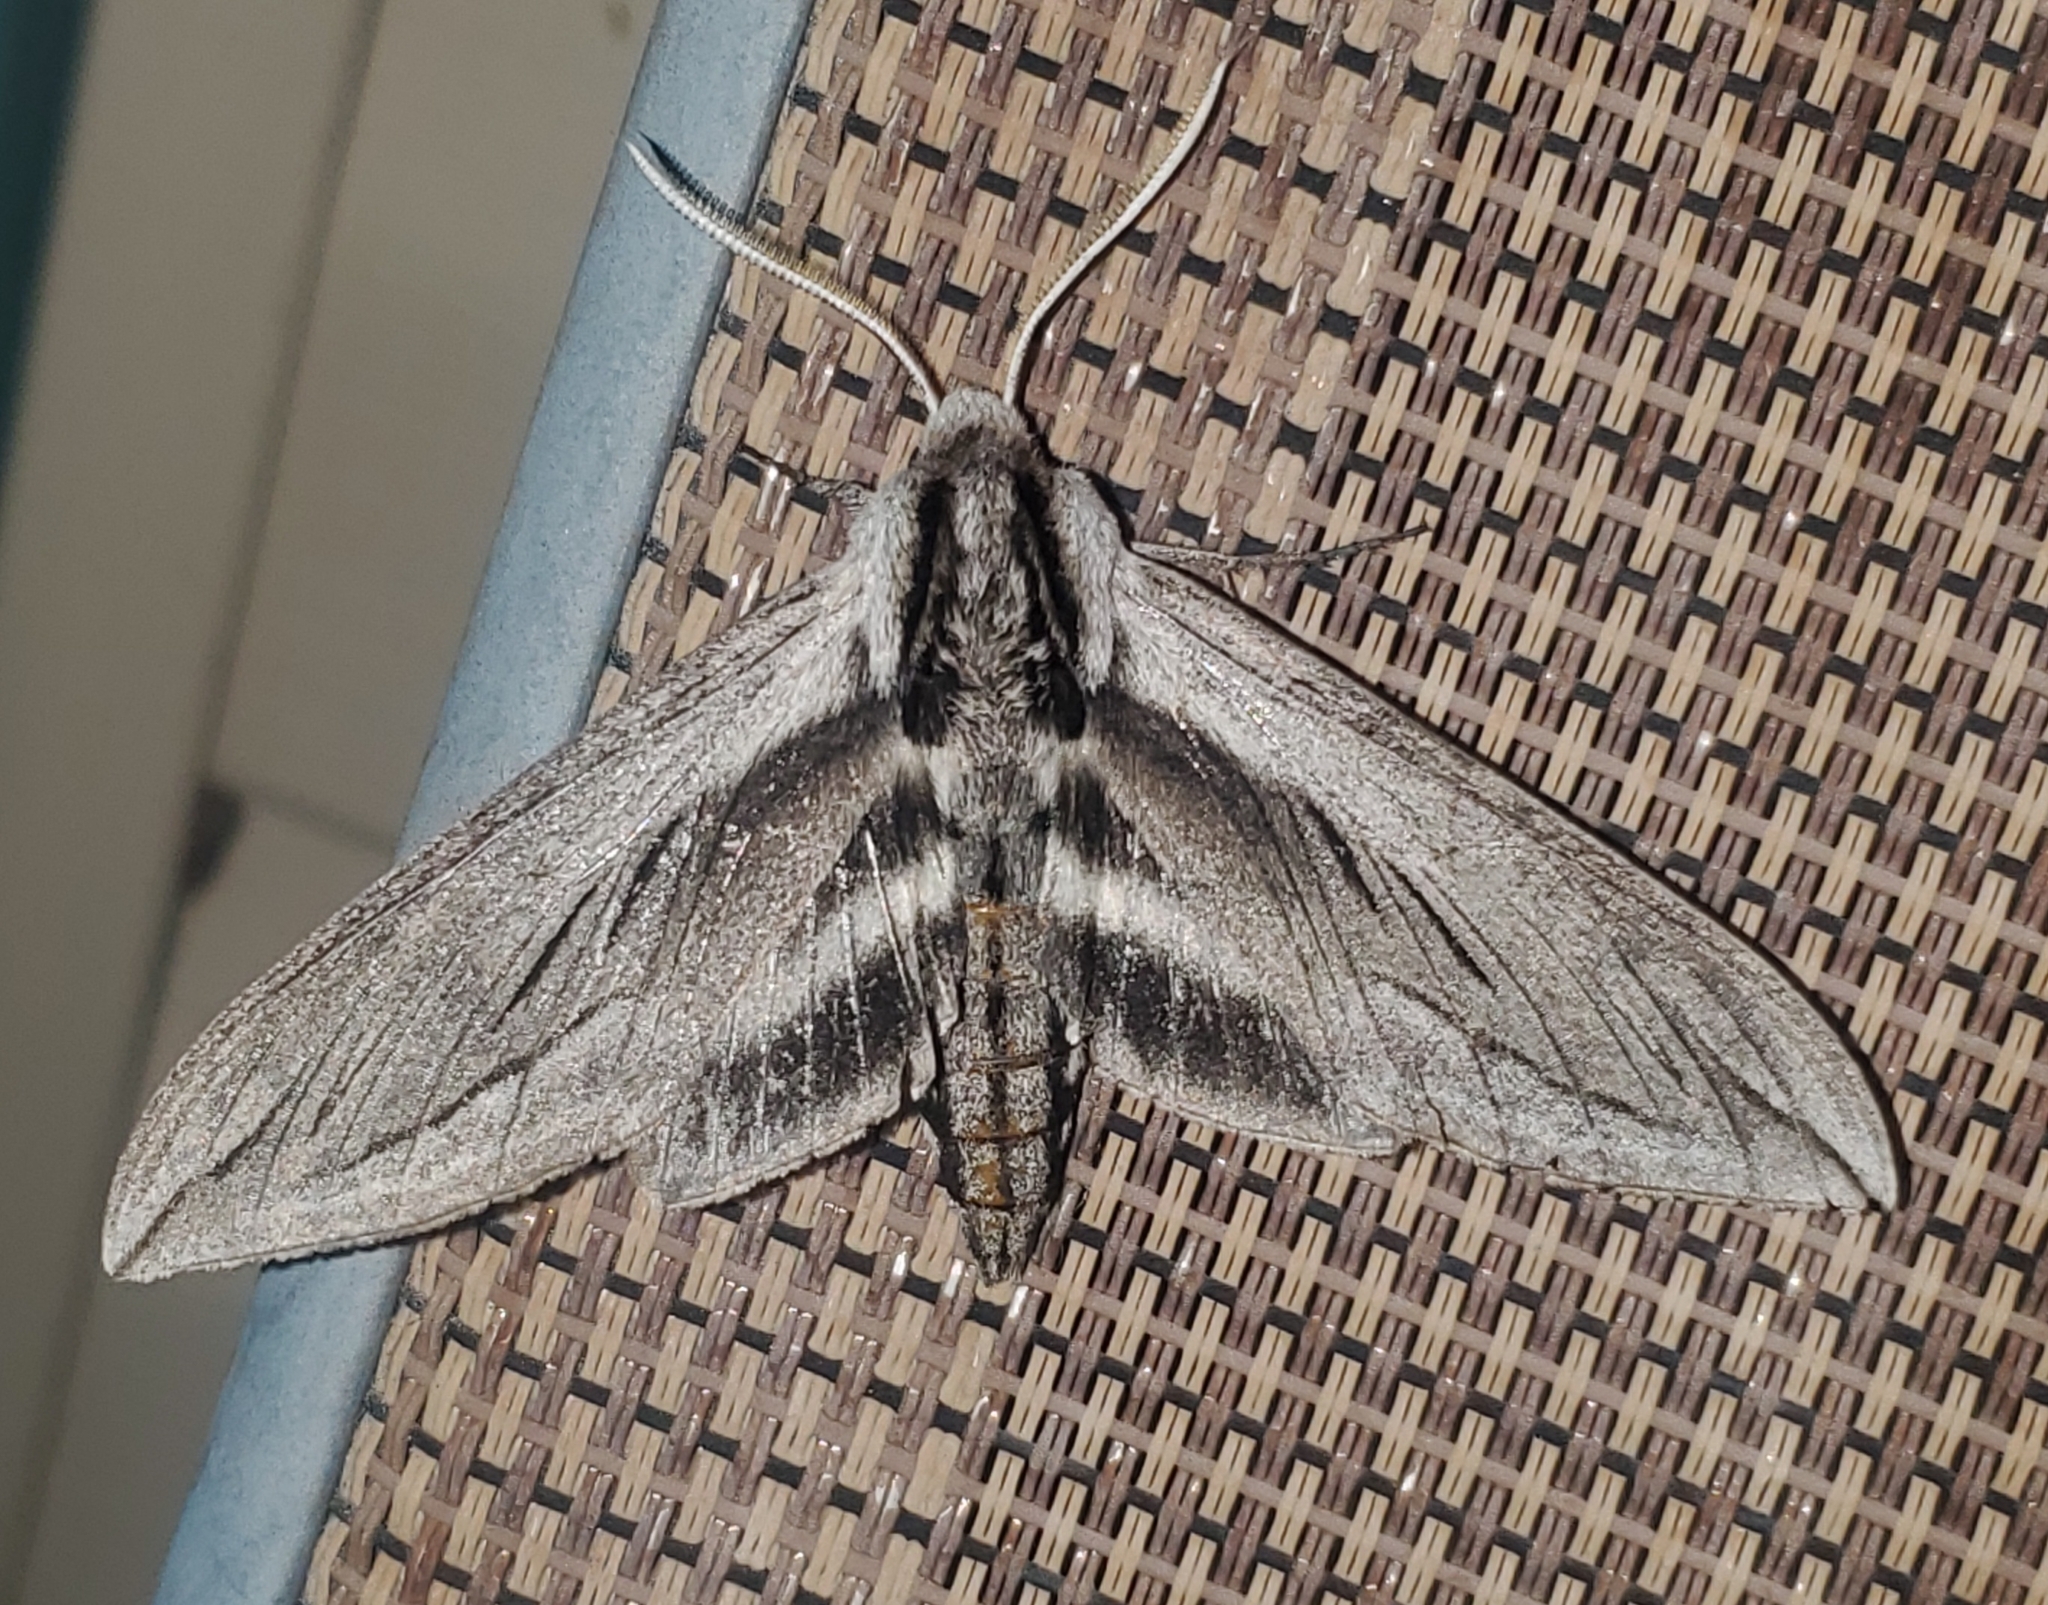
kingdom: Animalia
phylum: Arthropoda
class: Insecta
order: Lepidoptera
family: Sphingidae
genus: Sphinx
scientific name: Sphinx vashti
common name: Snowberry sphinx
